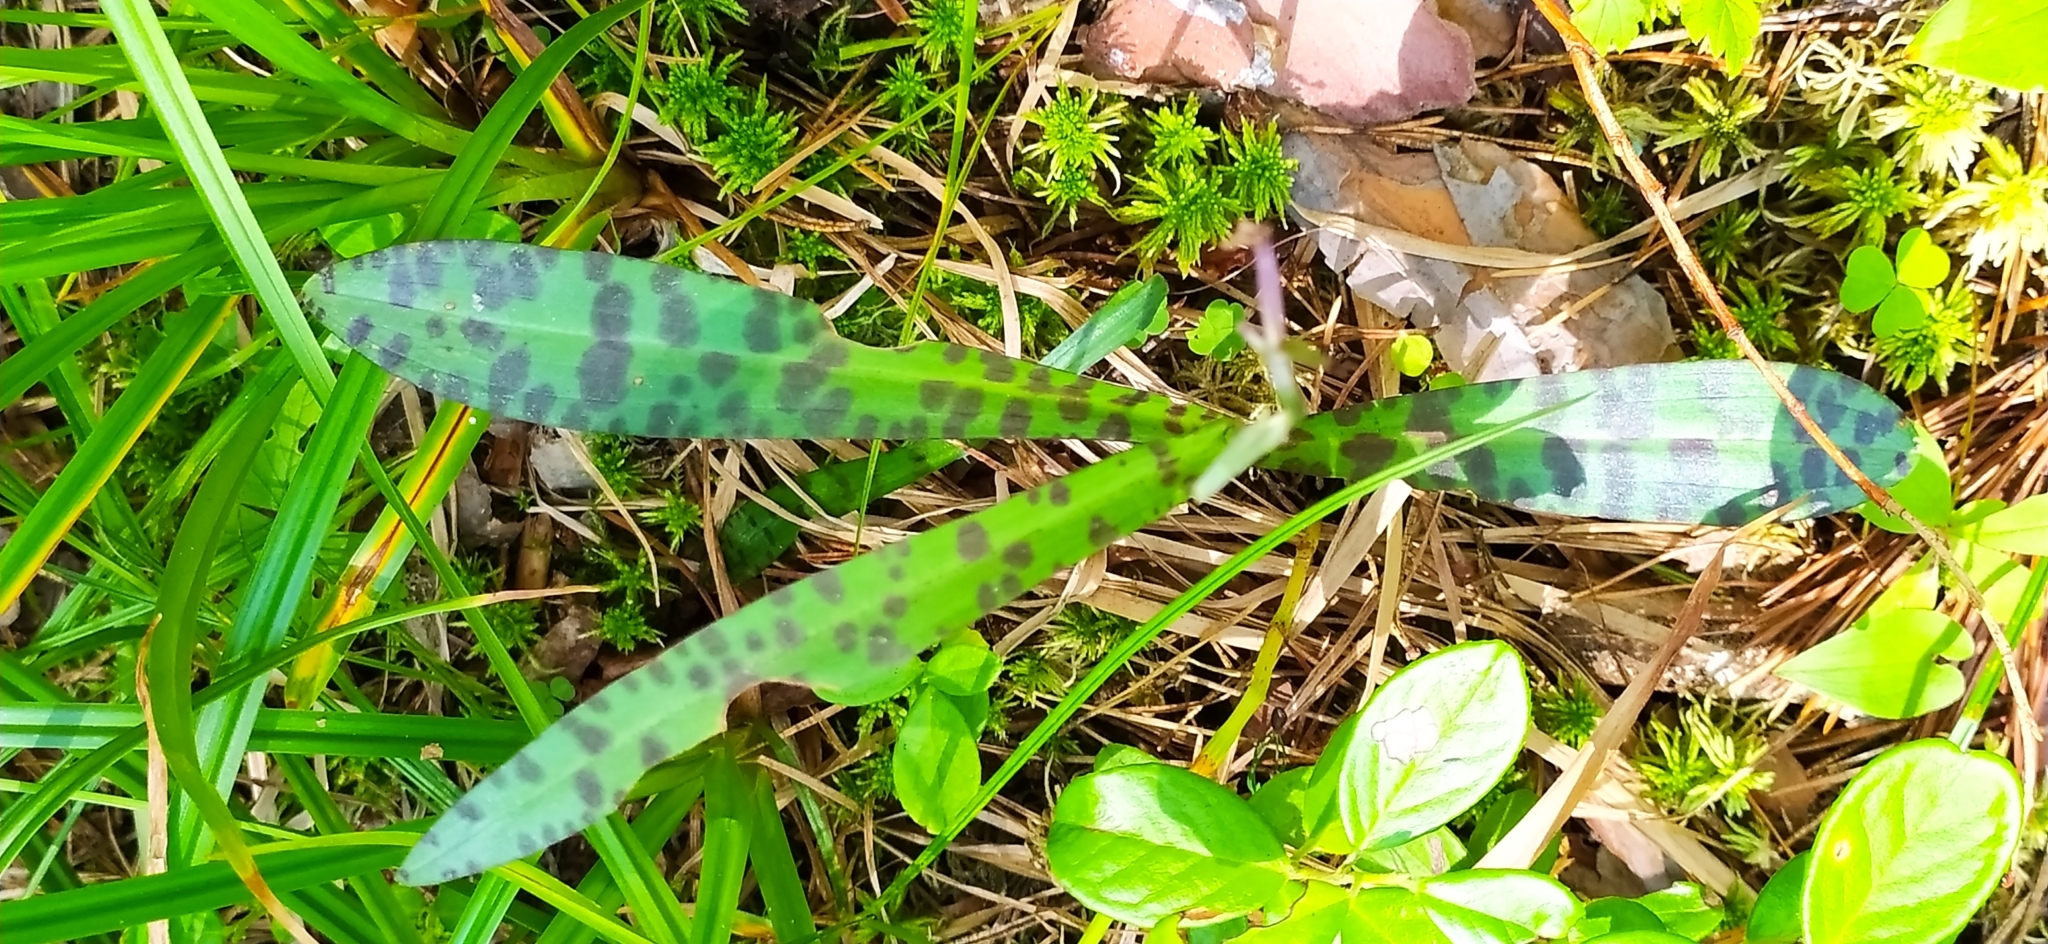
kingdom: Plantae
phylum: Tracheophyta
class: Liliopsida
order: Asparagales
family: Orchidaceae
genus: Dactylorhiza
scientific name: Dactylorhiza maculata
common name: Heath spotted-orchid
